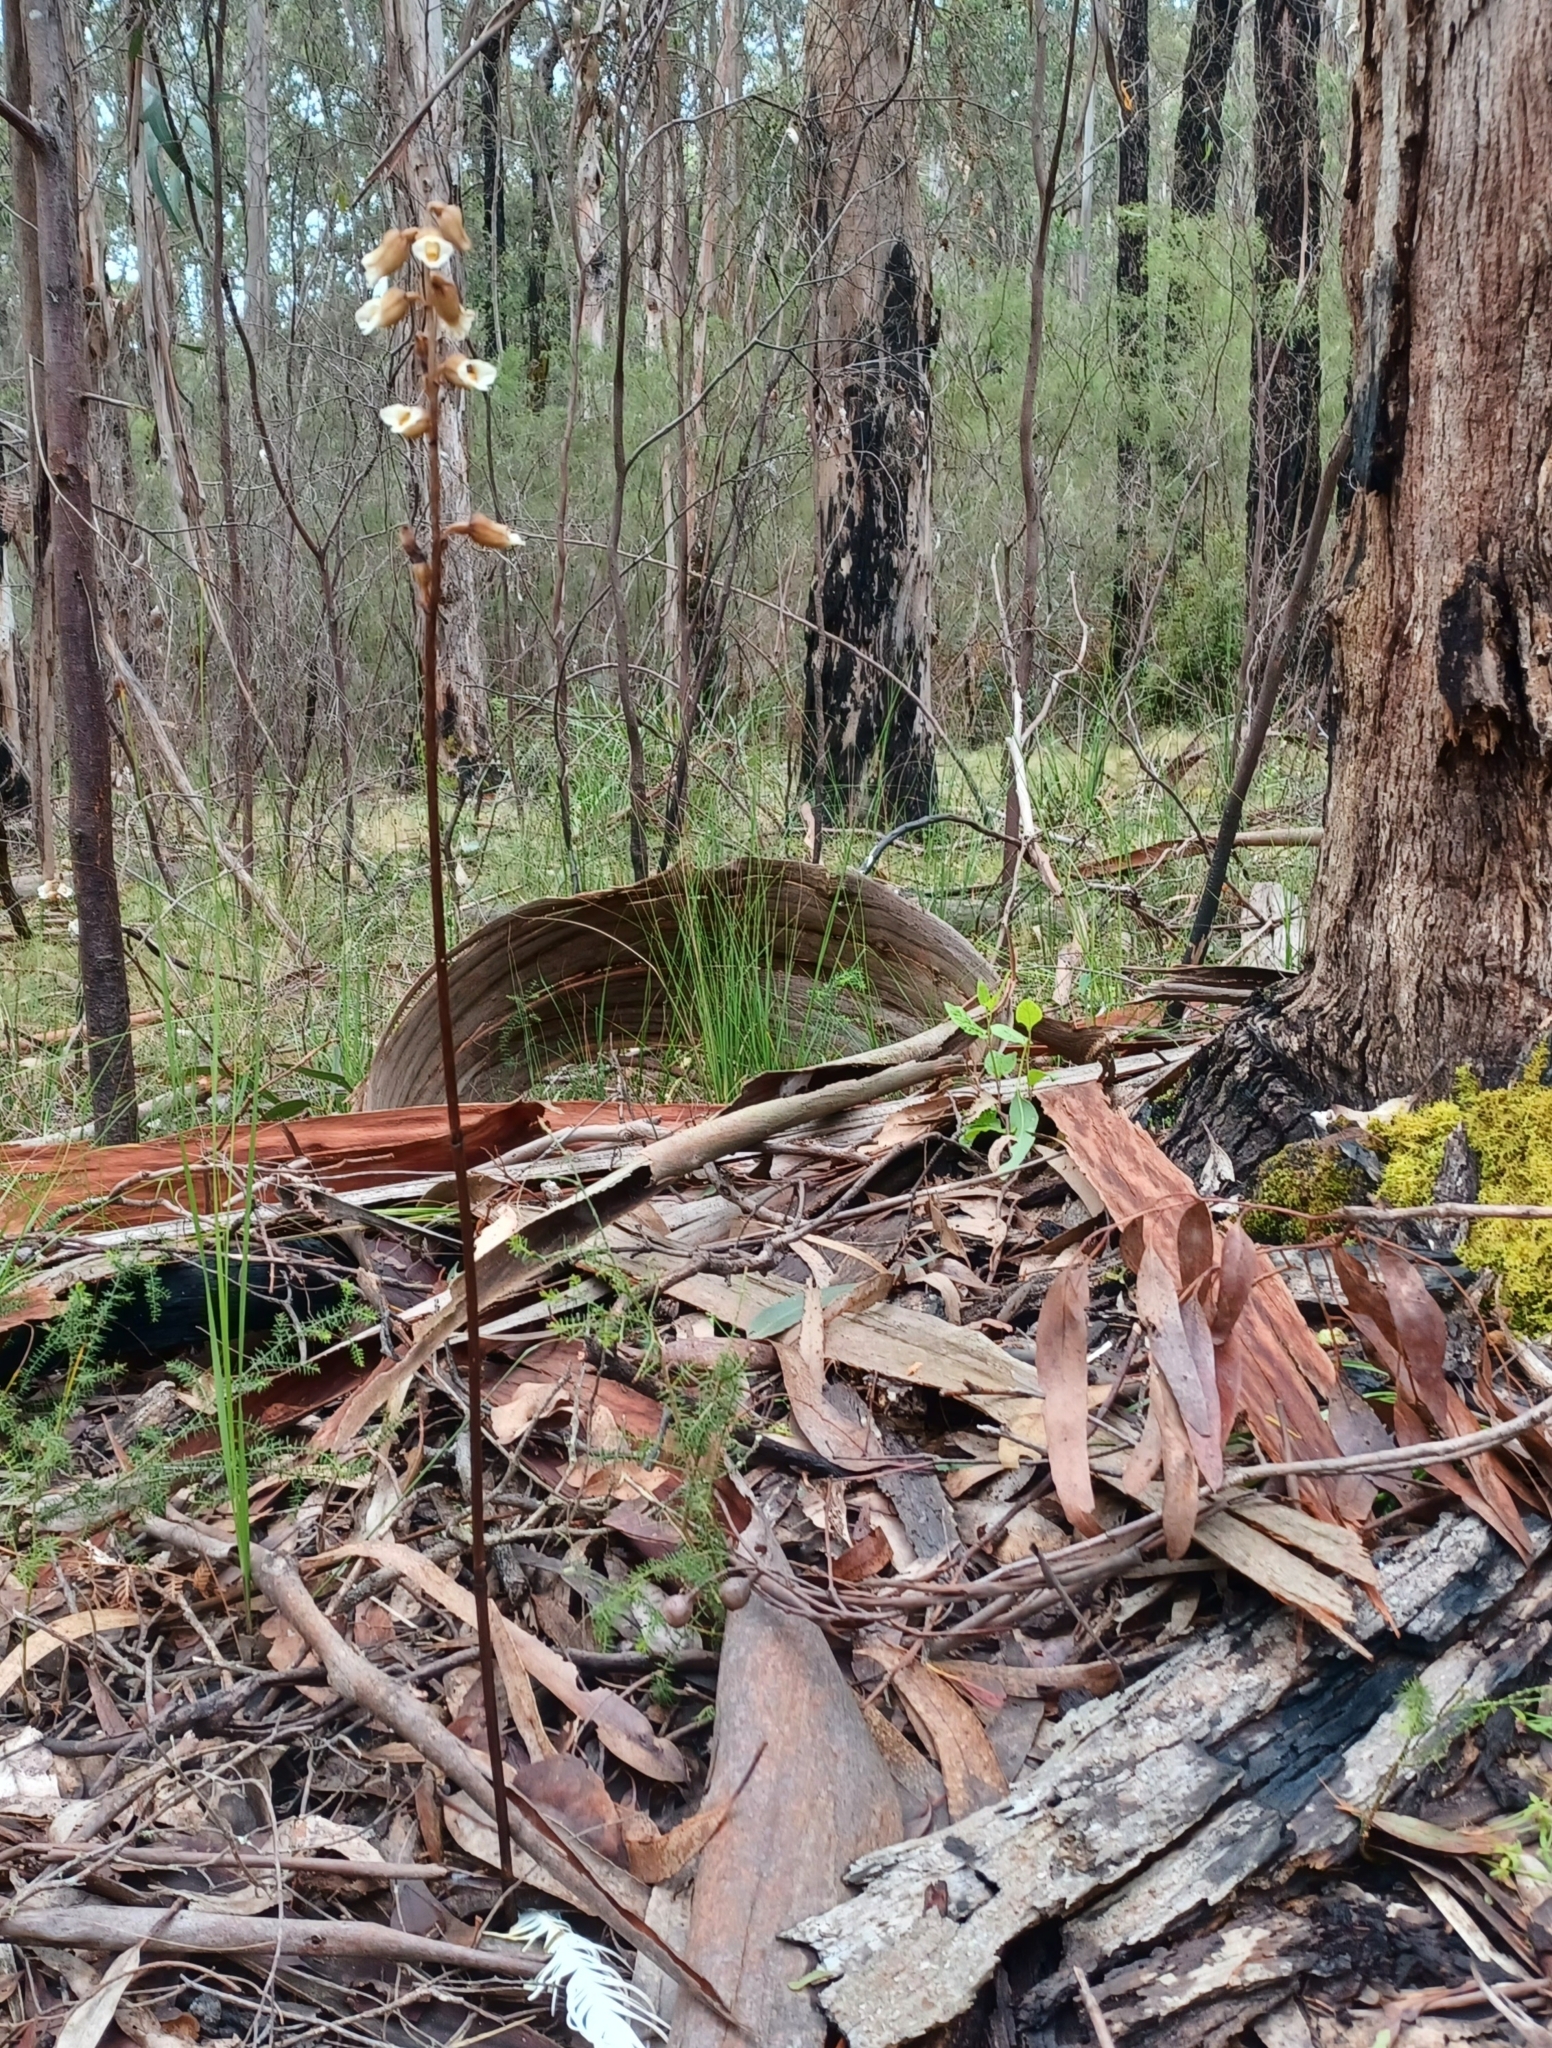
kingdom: Plantae
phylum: Tracheophyta
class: Liliopsida
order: Asparagales
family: Orchidaceae
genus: Gastrodia
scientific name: Gastrodia procera
